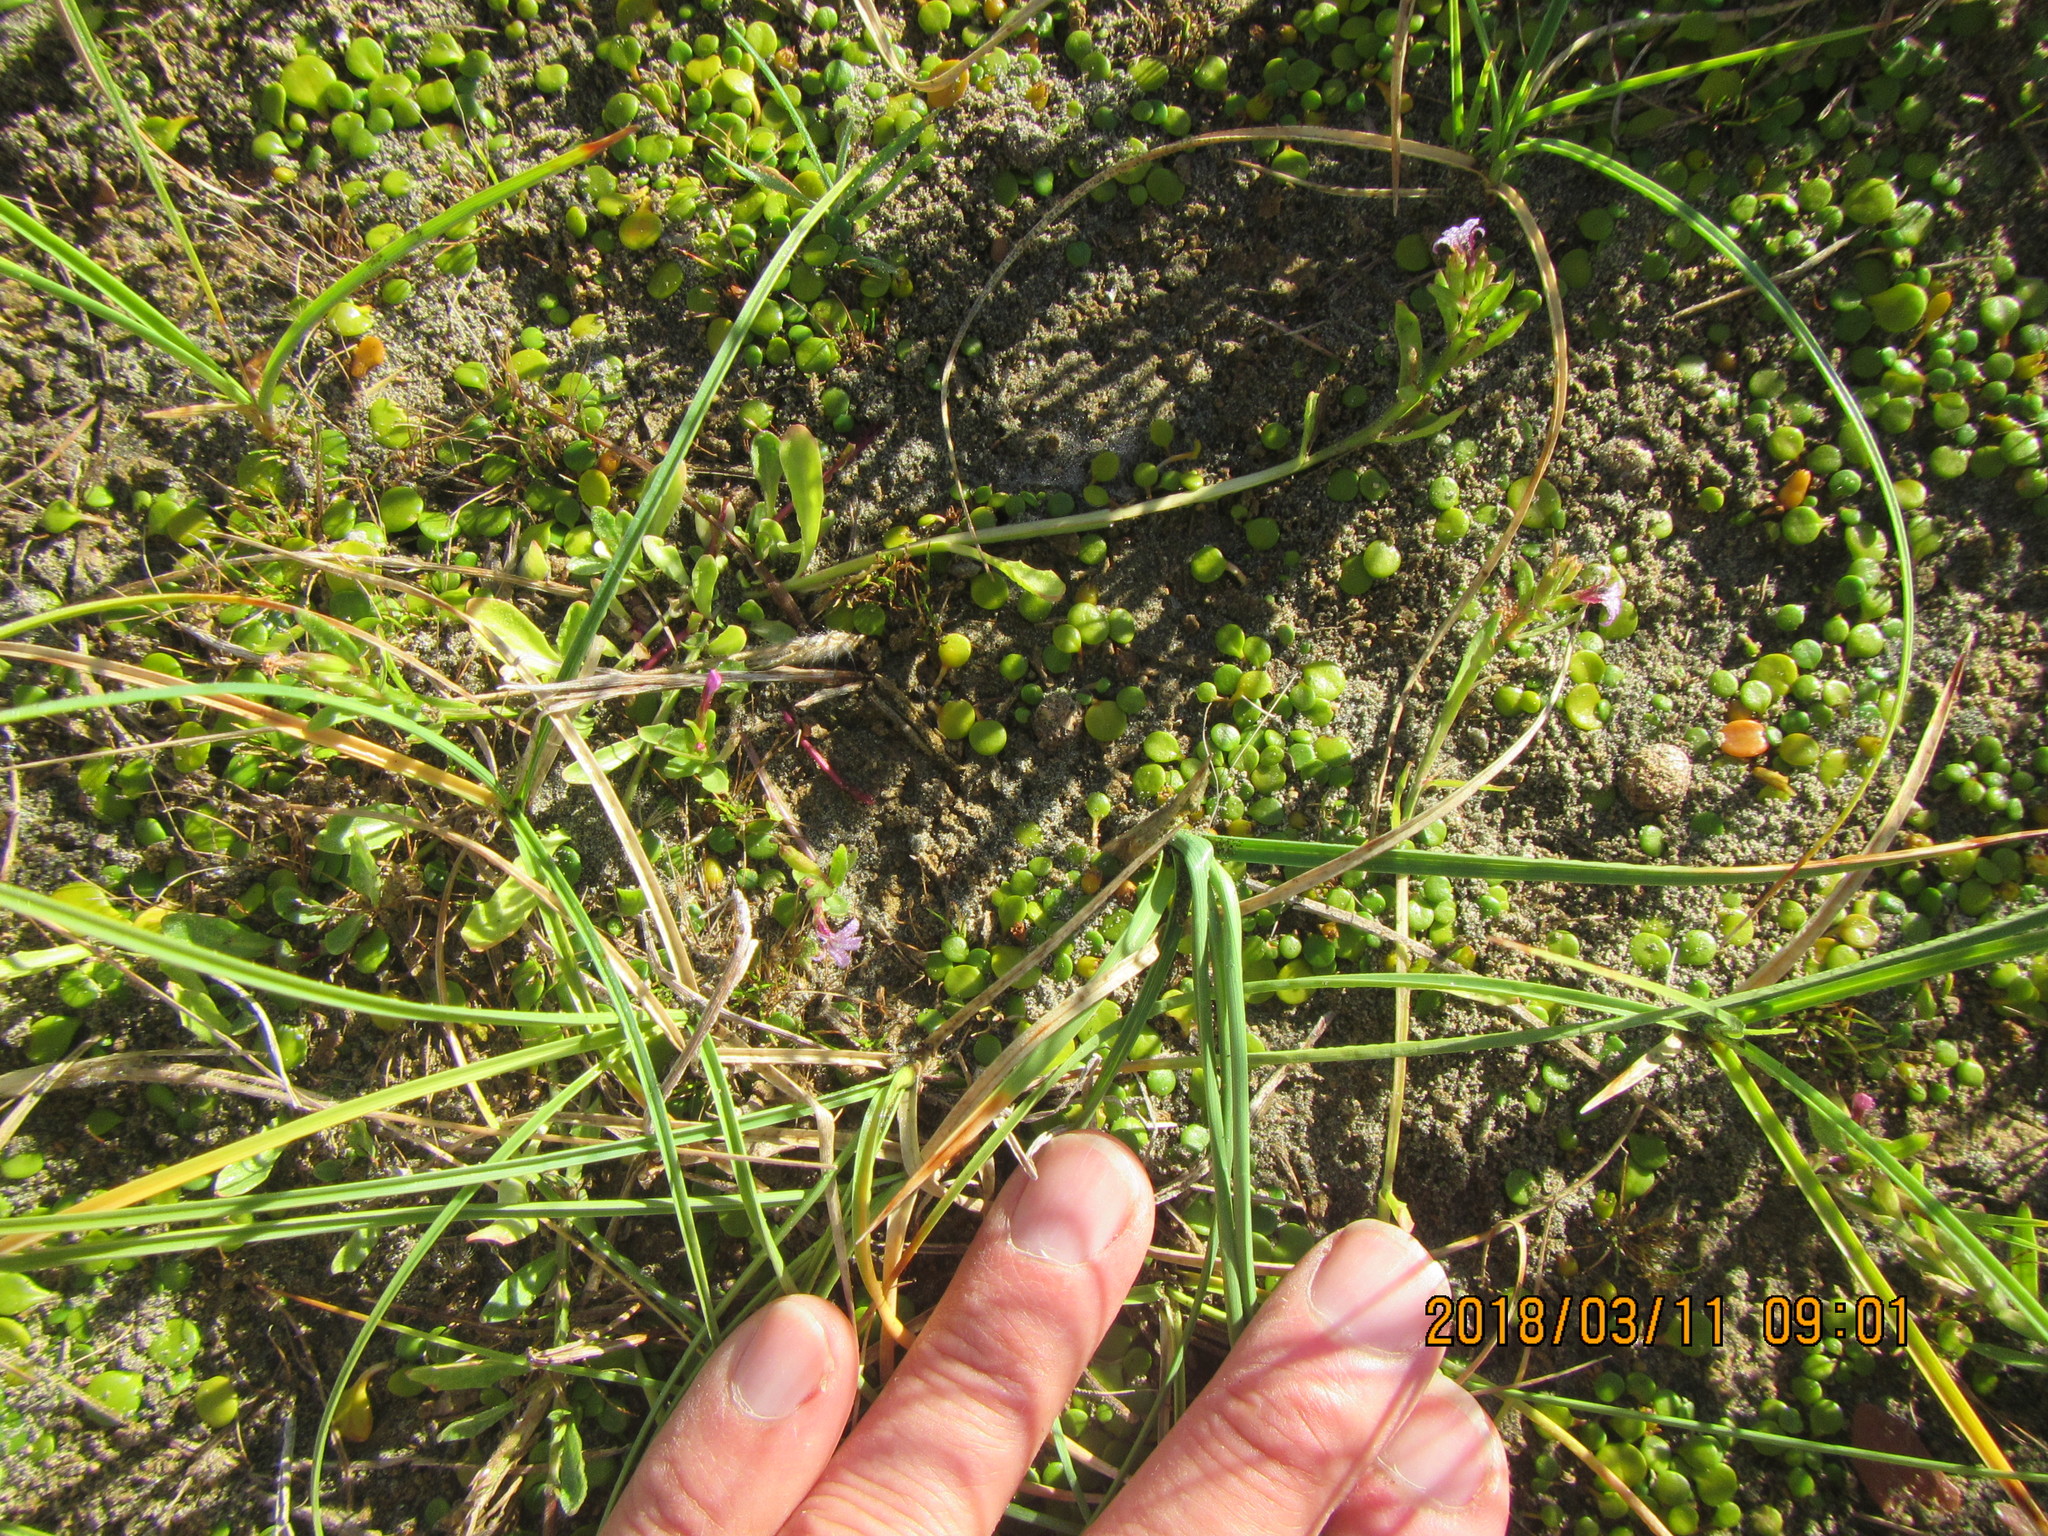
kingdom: Plantae
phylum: Tracheophyta
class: Magnoliopsida
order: Asterales
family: Campanulaceae
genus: Lobelia
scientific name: Lobelia anceps
